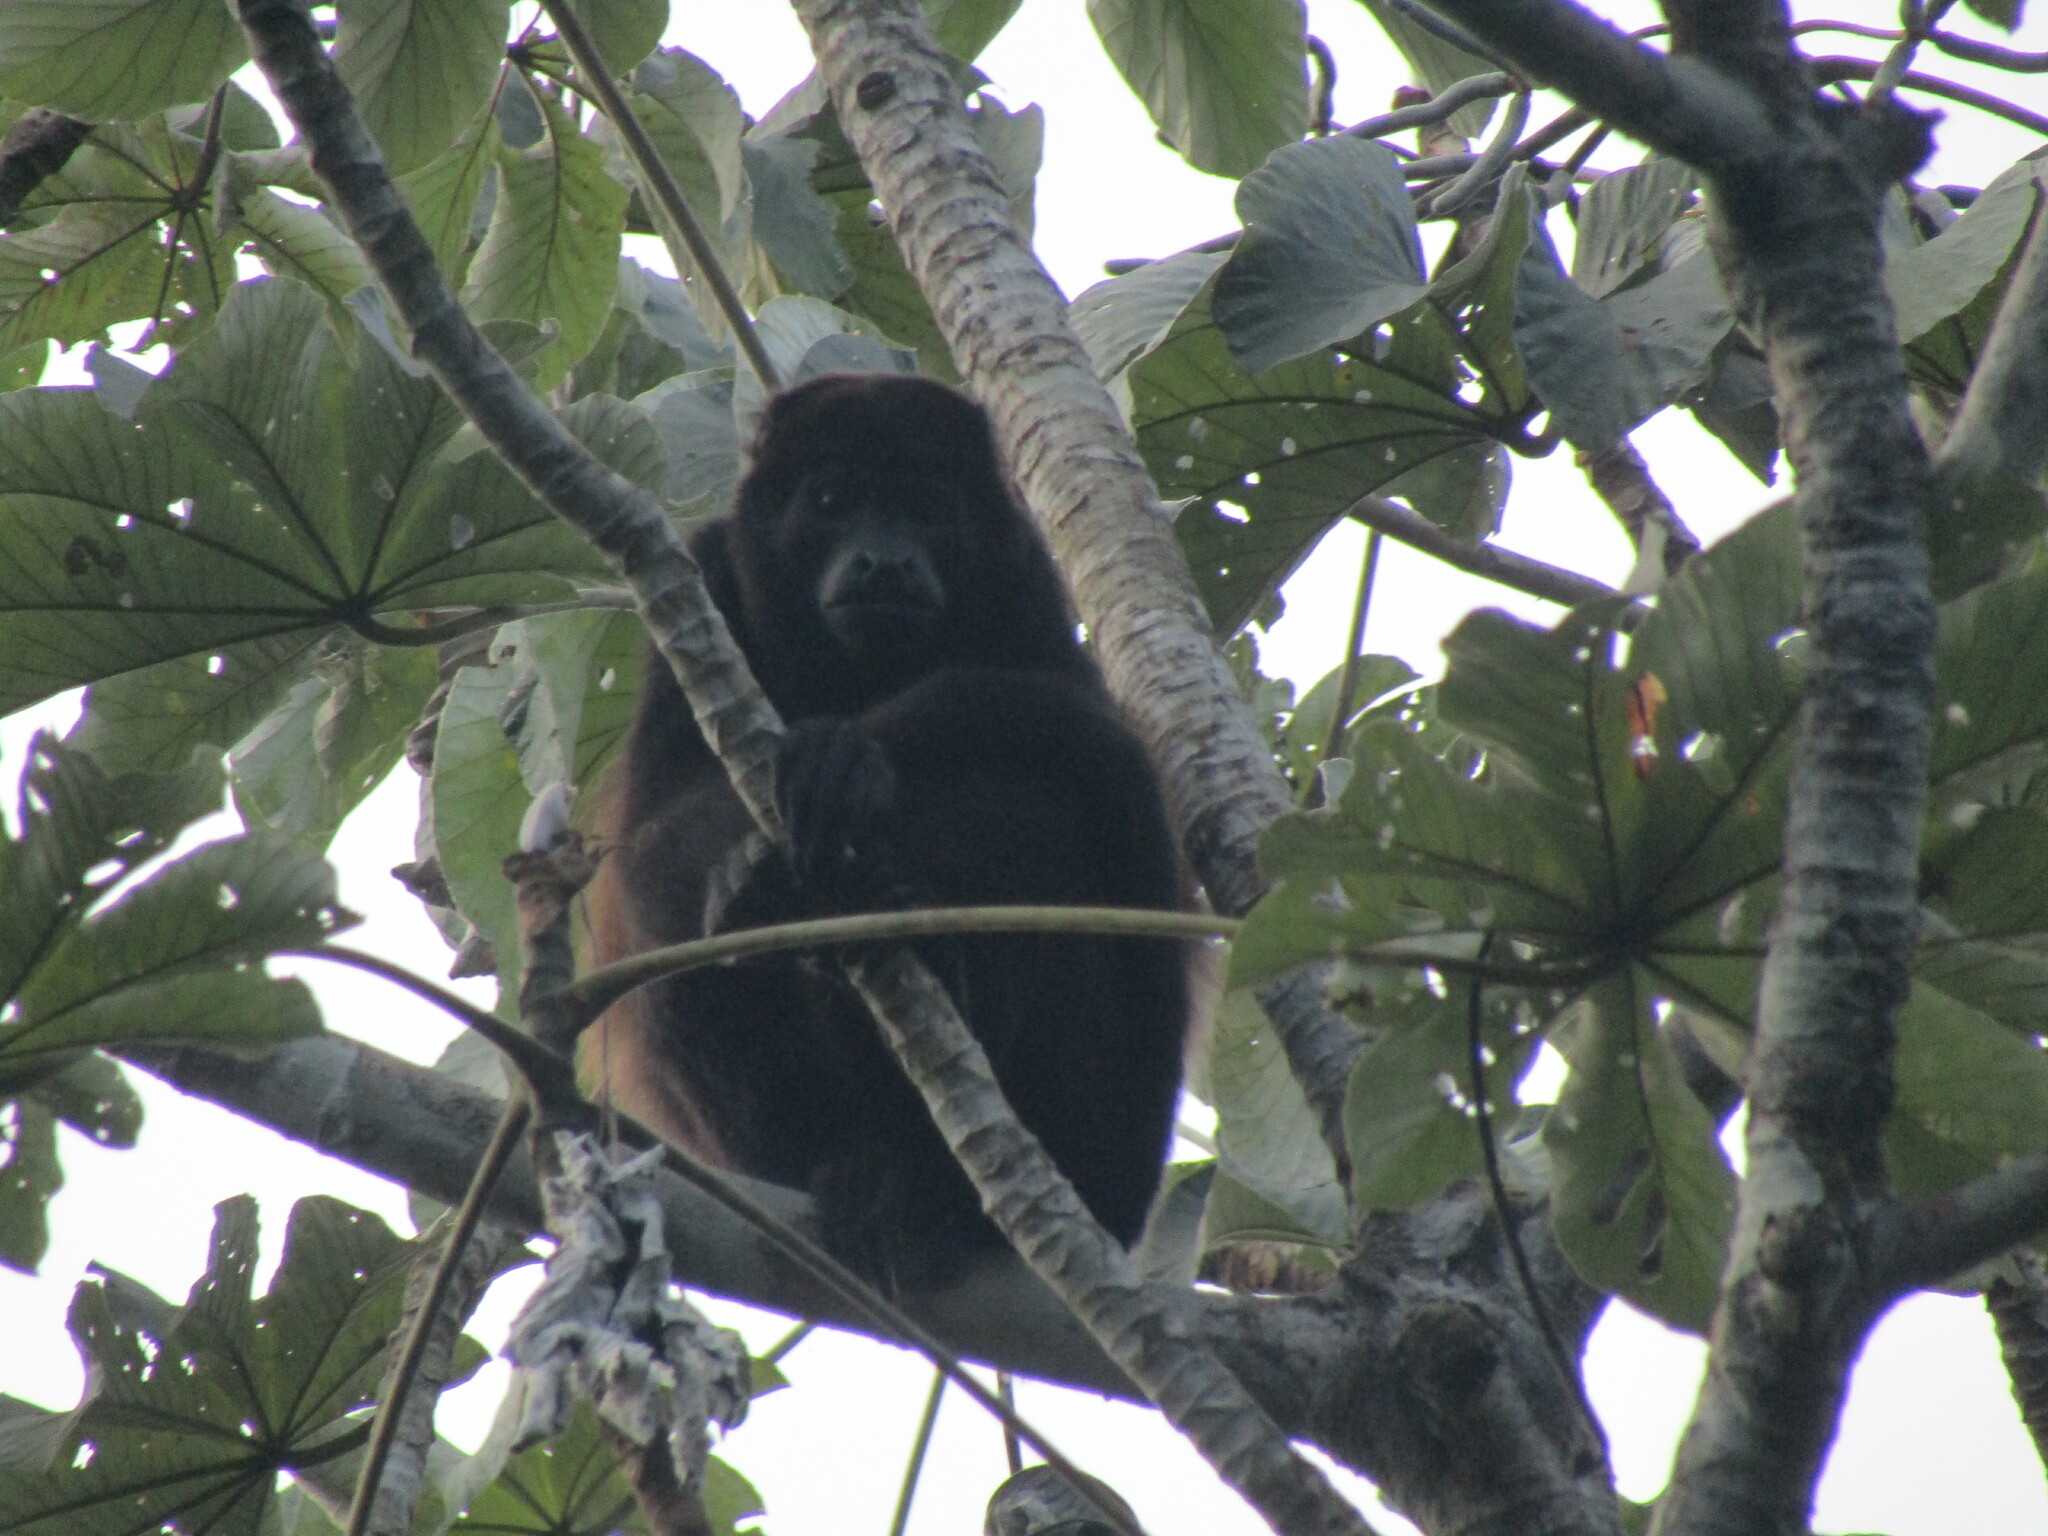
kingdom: Animalia
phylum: Chordata
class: Mammalia
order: Primates
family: Atelidae
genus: Alouatta
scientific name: Alouatta palliata
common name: Mantled howler
